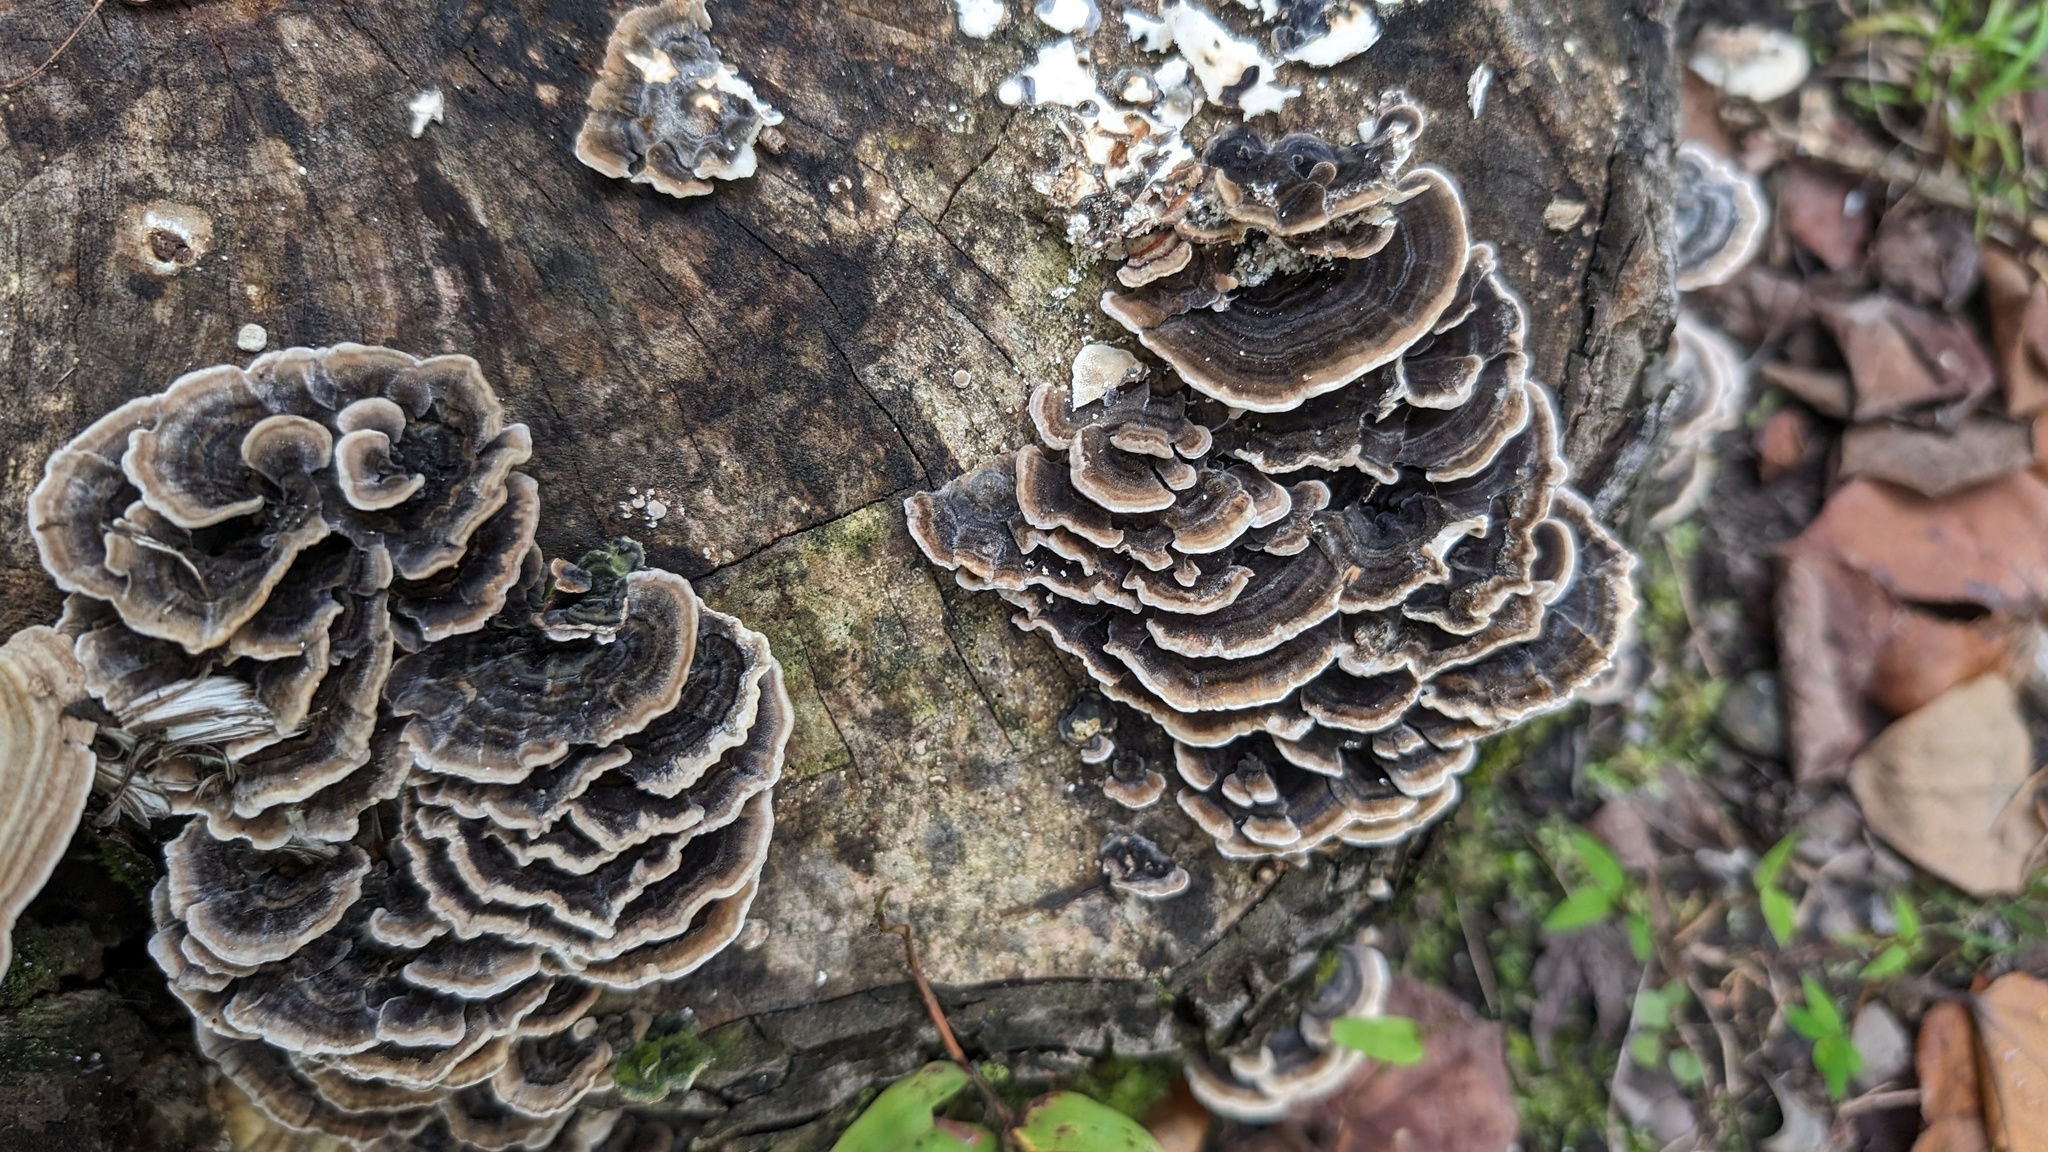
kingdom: Fungi
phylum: Basidiomycota
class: Agaricomycetes
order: Polyporales
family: Polyporaceae
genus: Trametes
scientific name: Trametes versicolor
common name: Turkeytail
